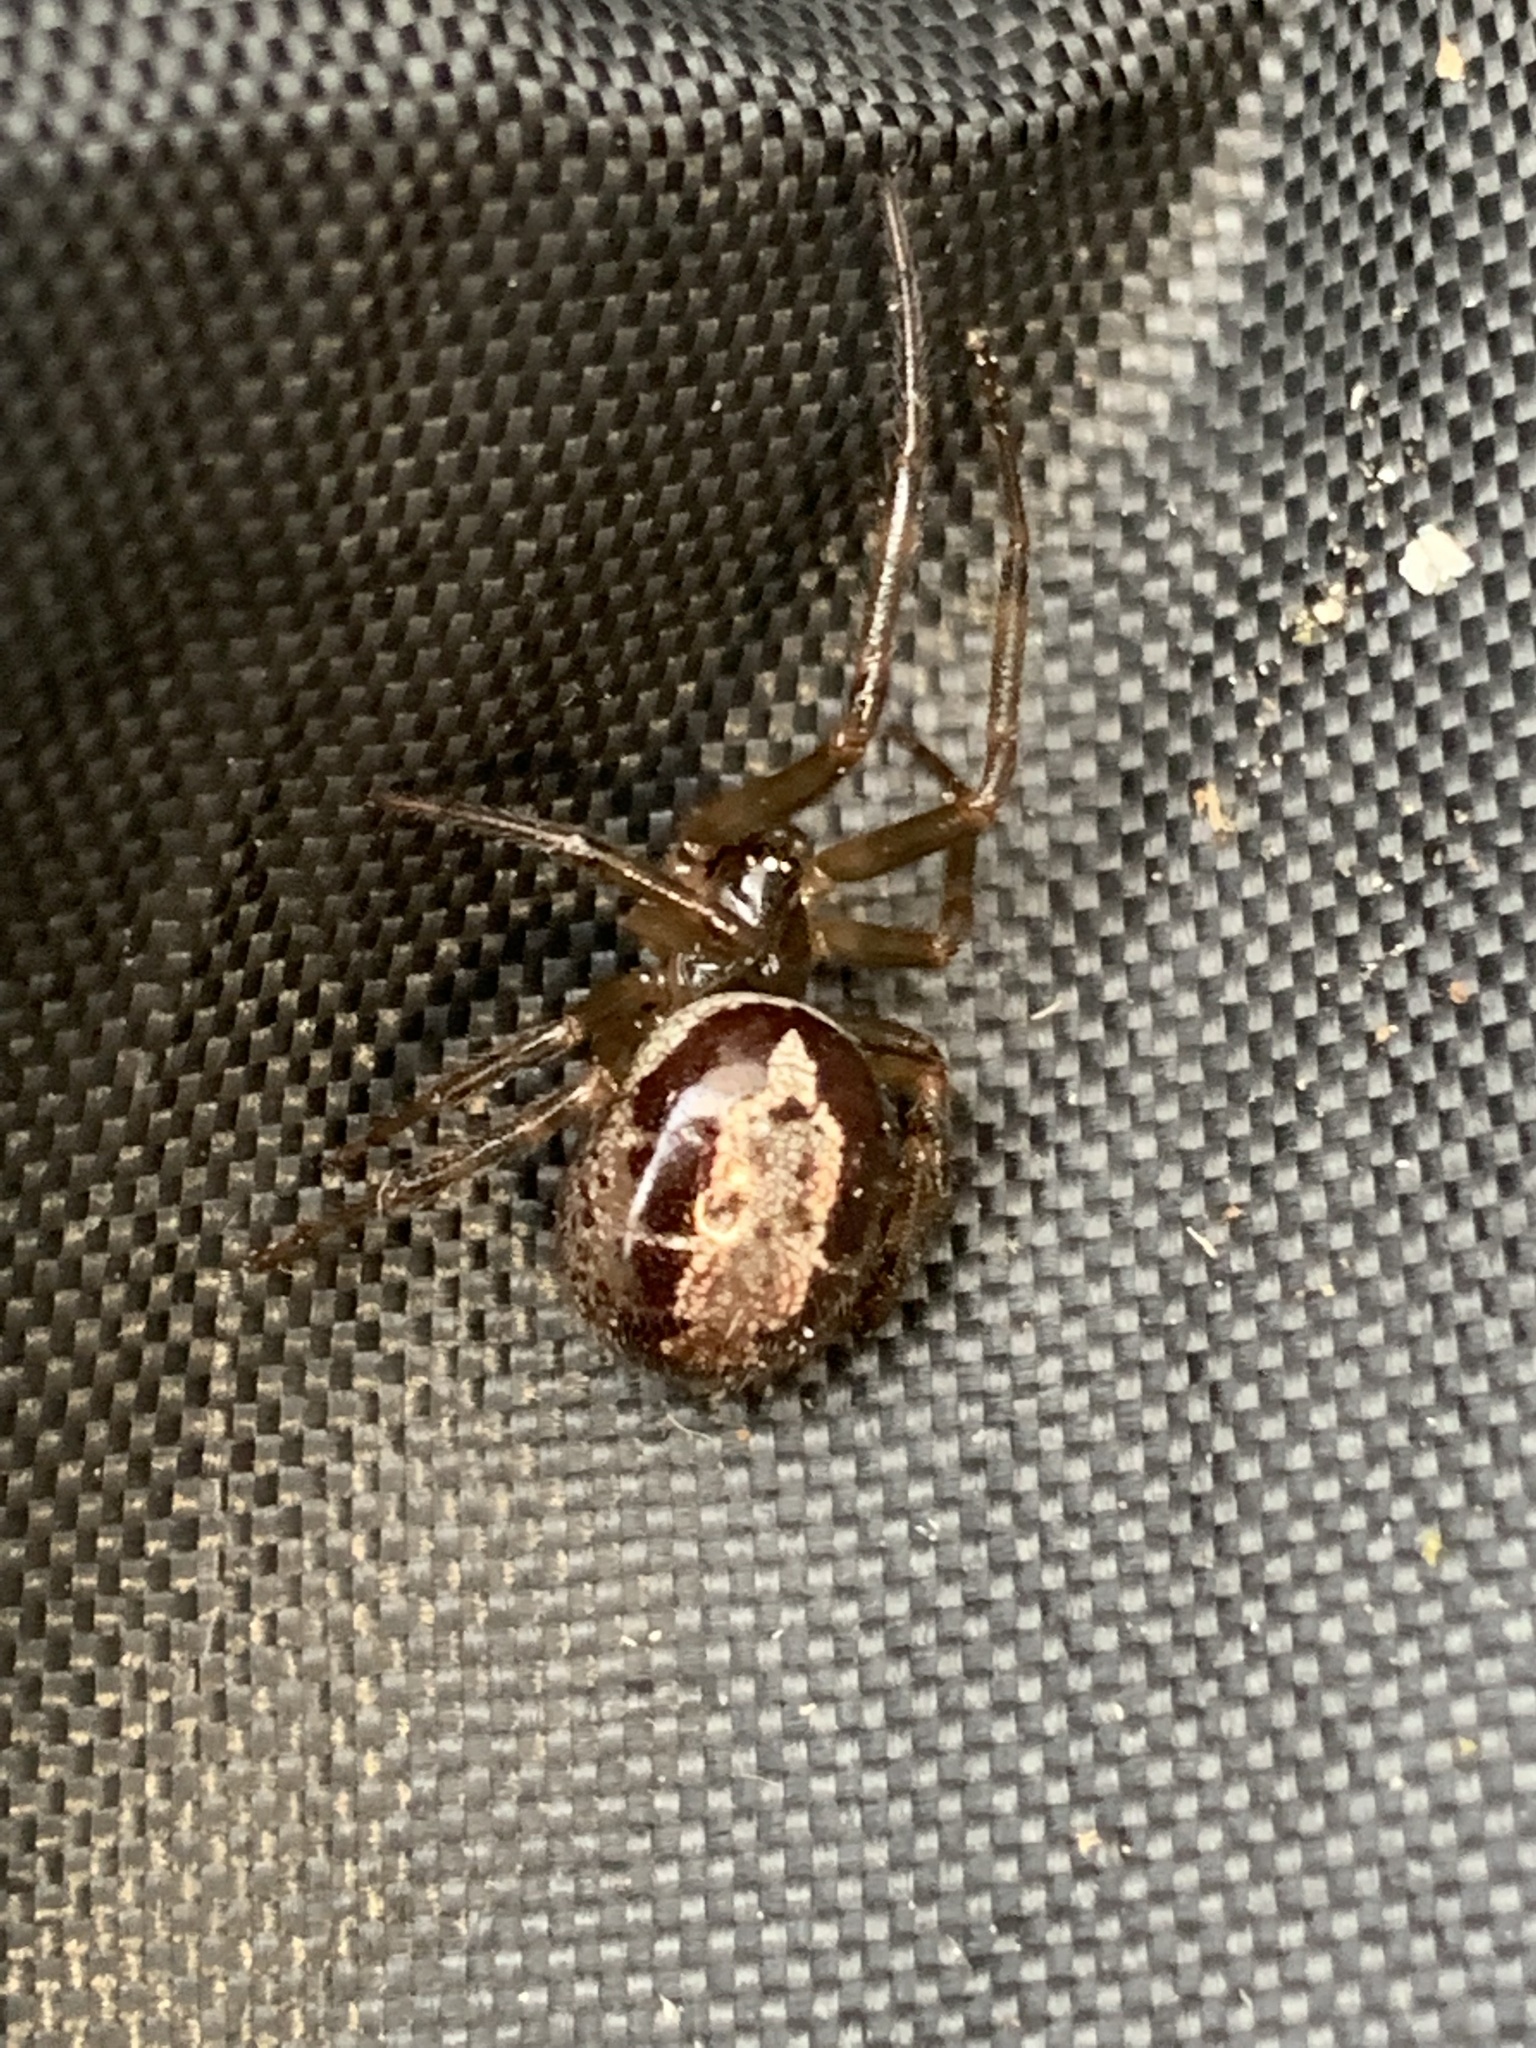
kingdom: Animalia
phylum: Arthropoda
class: Arachnida
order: Araneae
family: Theridiidae
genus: Steatoda
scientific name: Steatoda nobilis
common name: Cobweb weaver
